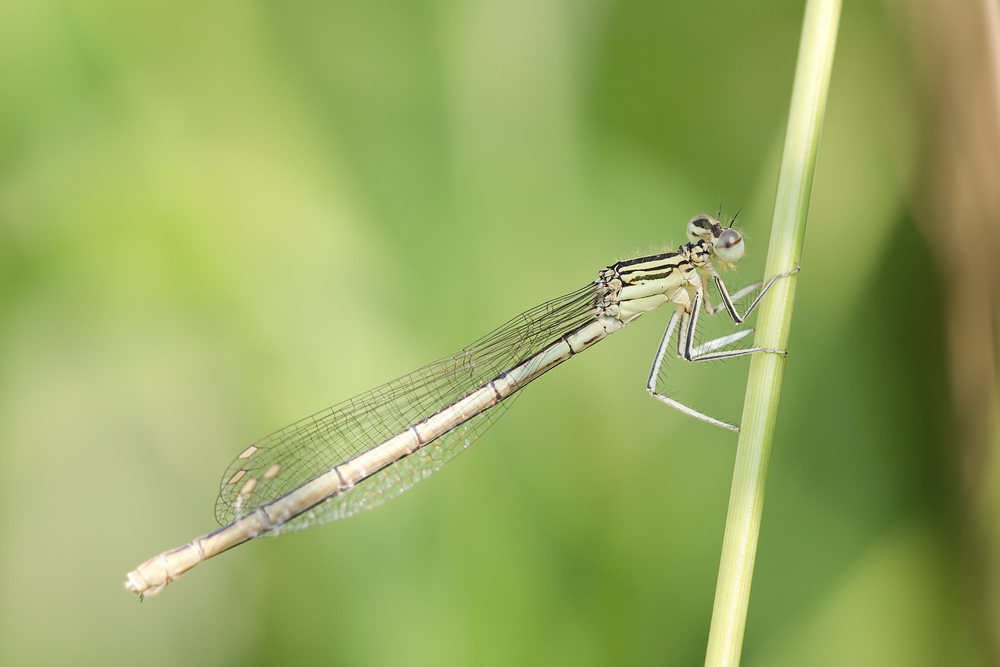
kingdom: Animalia
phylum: Arthropoda
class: Insecta
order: Odonata
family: Platycnemididae
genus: Platycnemis
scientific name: Platycnemis pennipes
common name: White-legged damselfly
